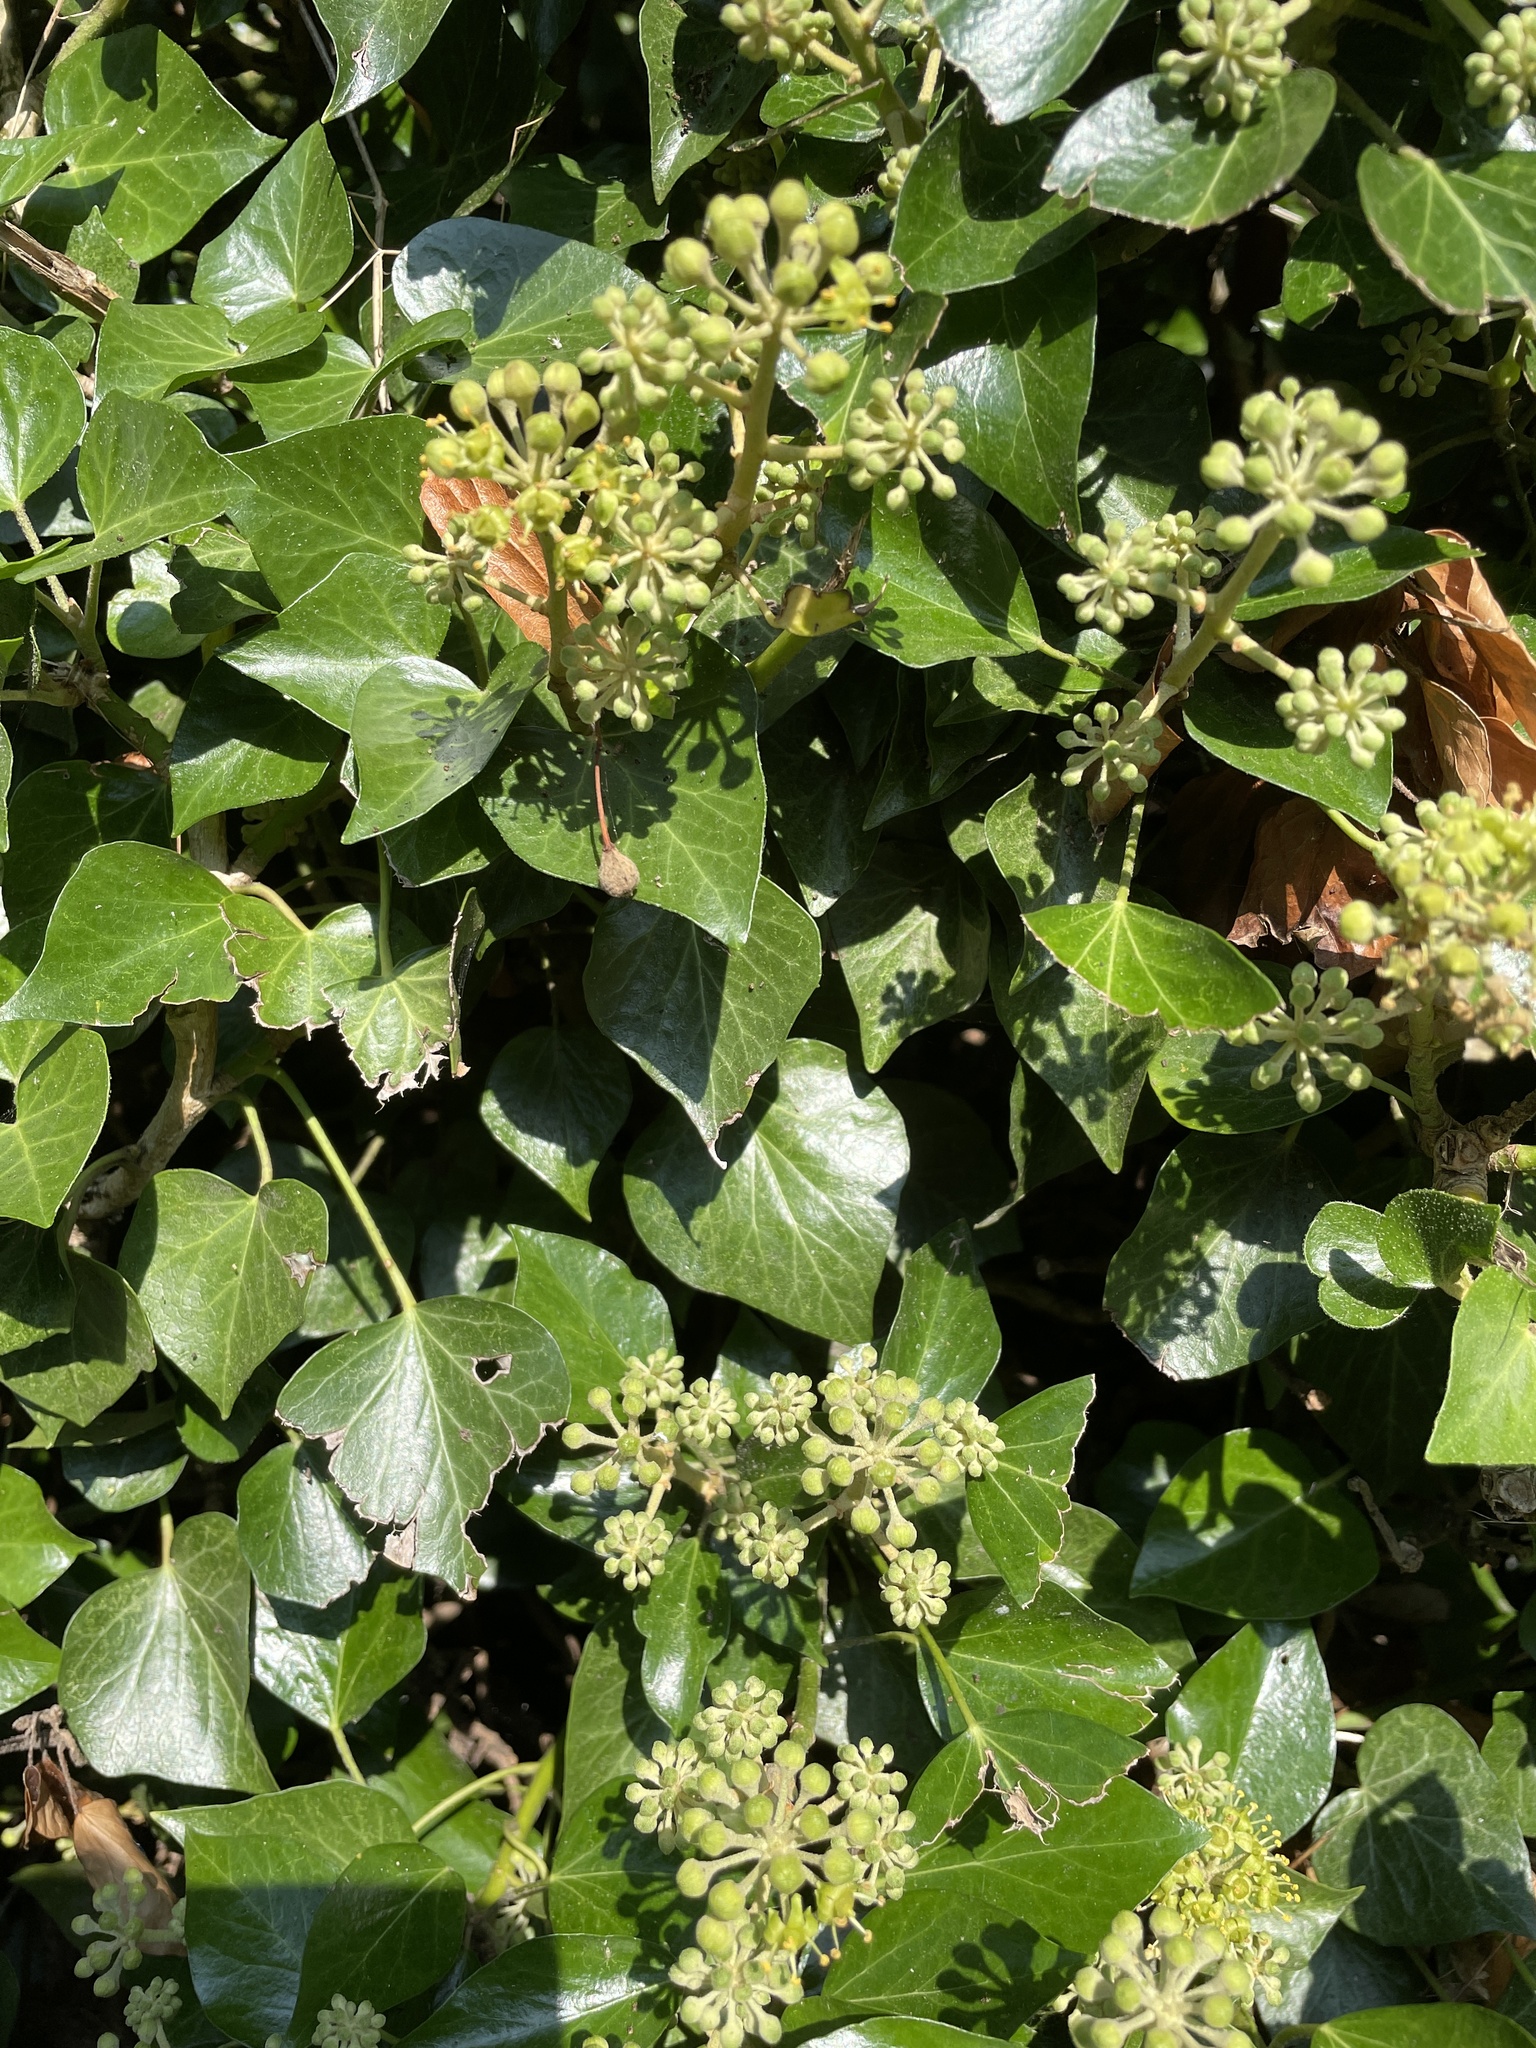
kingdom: Plantae
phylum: Tracheophyta
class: Magnoliopsida
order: Apiales
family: Araliaceae
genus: Hedera
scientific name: Hedera helix
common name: Ivy
